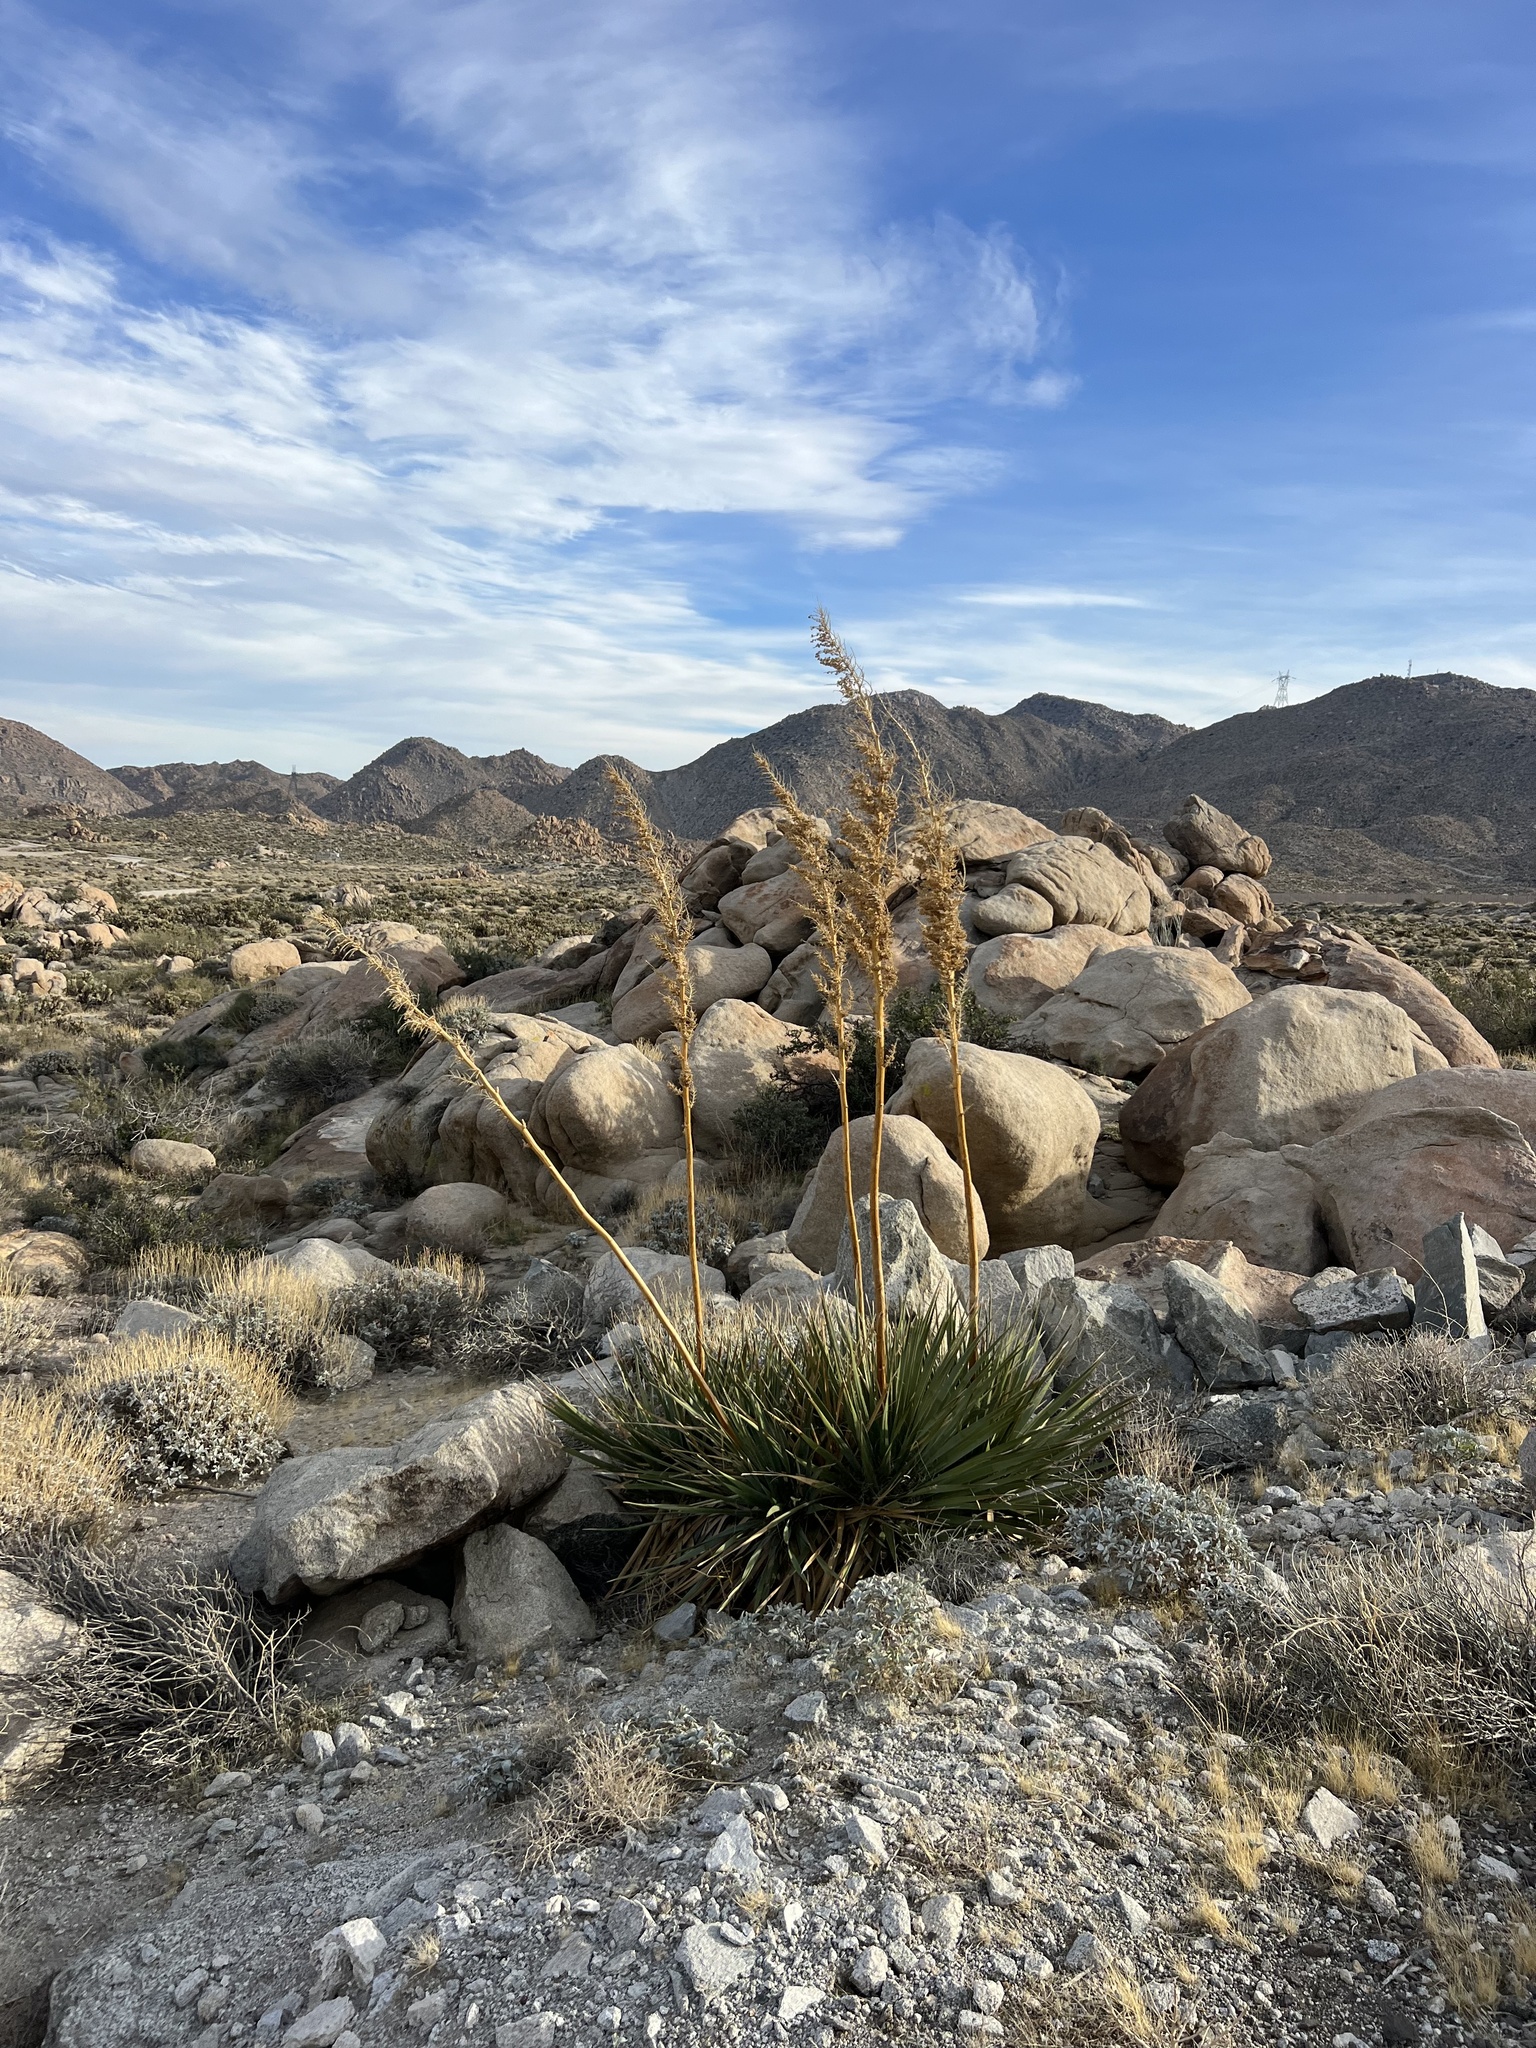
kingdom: Plantae
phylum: Tracheophyta
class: Liliopsida
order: Asparagales
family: Asparagaceae
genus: Nolina
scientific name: Nolina bigelovii
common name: Bigelow bear-grass
